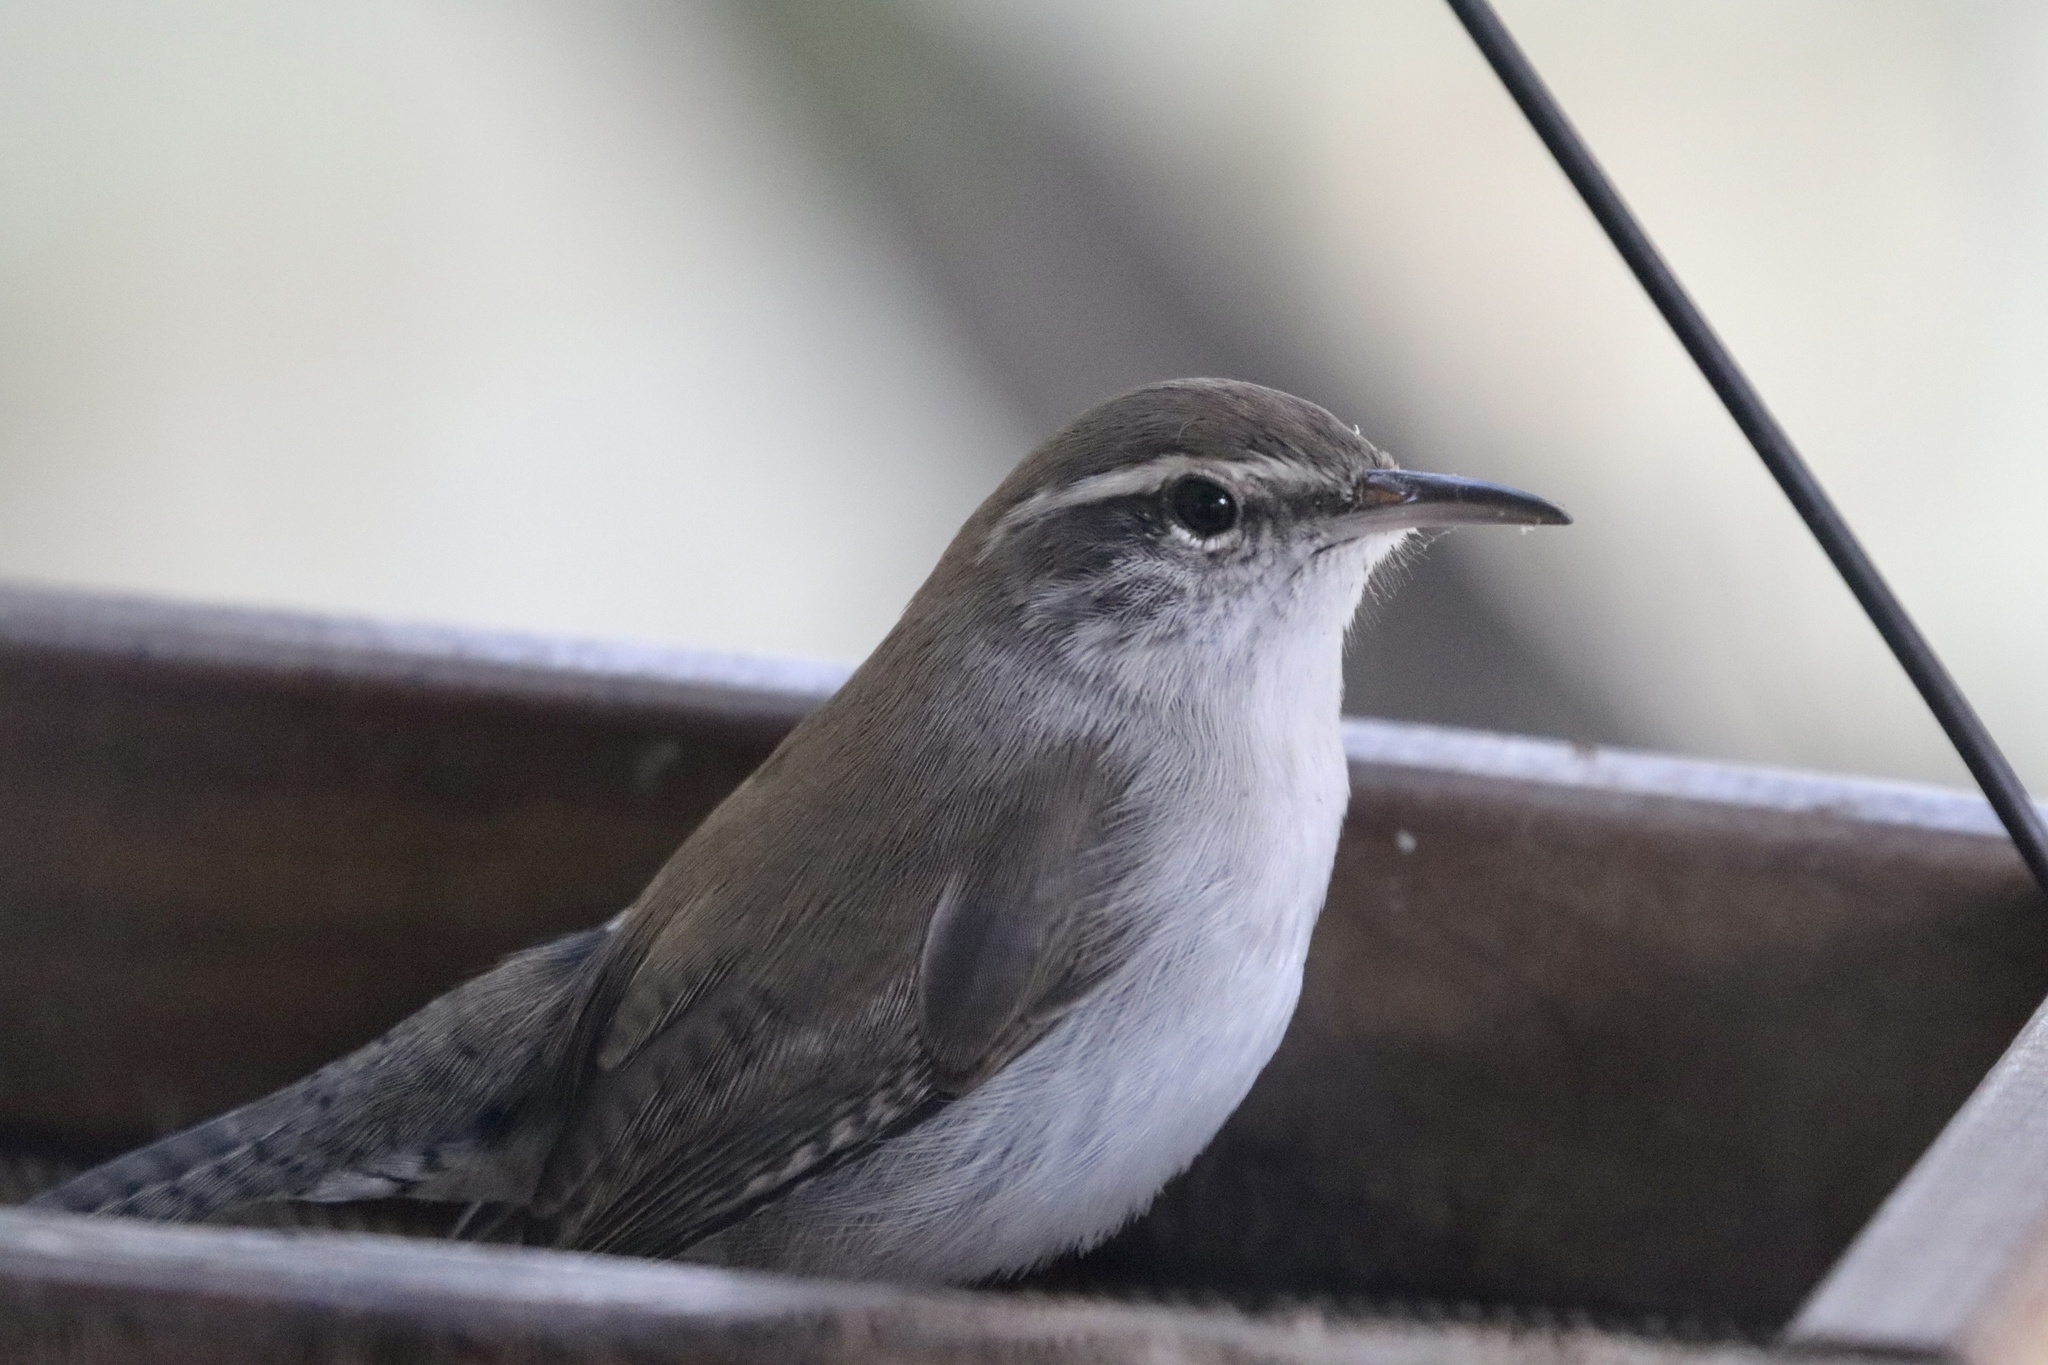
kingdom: Animalia
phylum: Chordata
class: Aves
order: Passeriformes
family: Troglodytidae
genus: Thryomanes
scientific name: Thryomanes bewickii
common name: Bewick's wren
